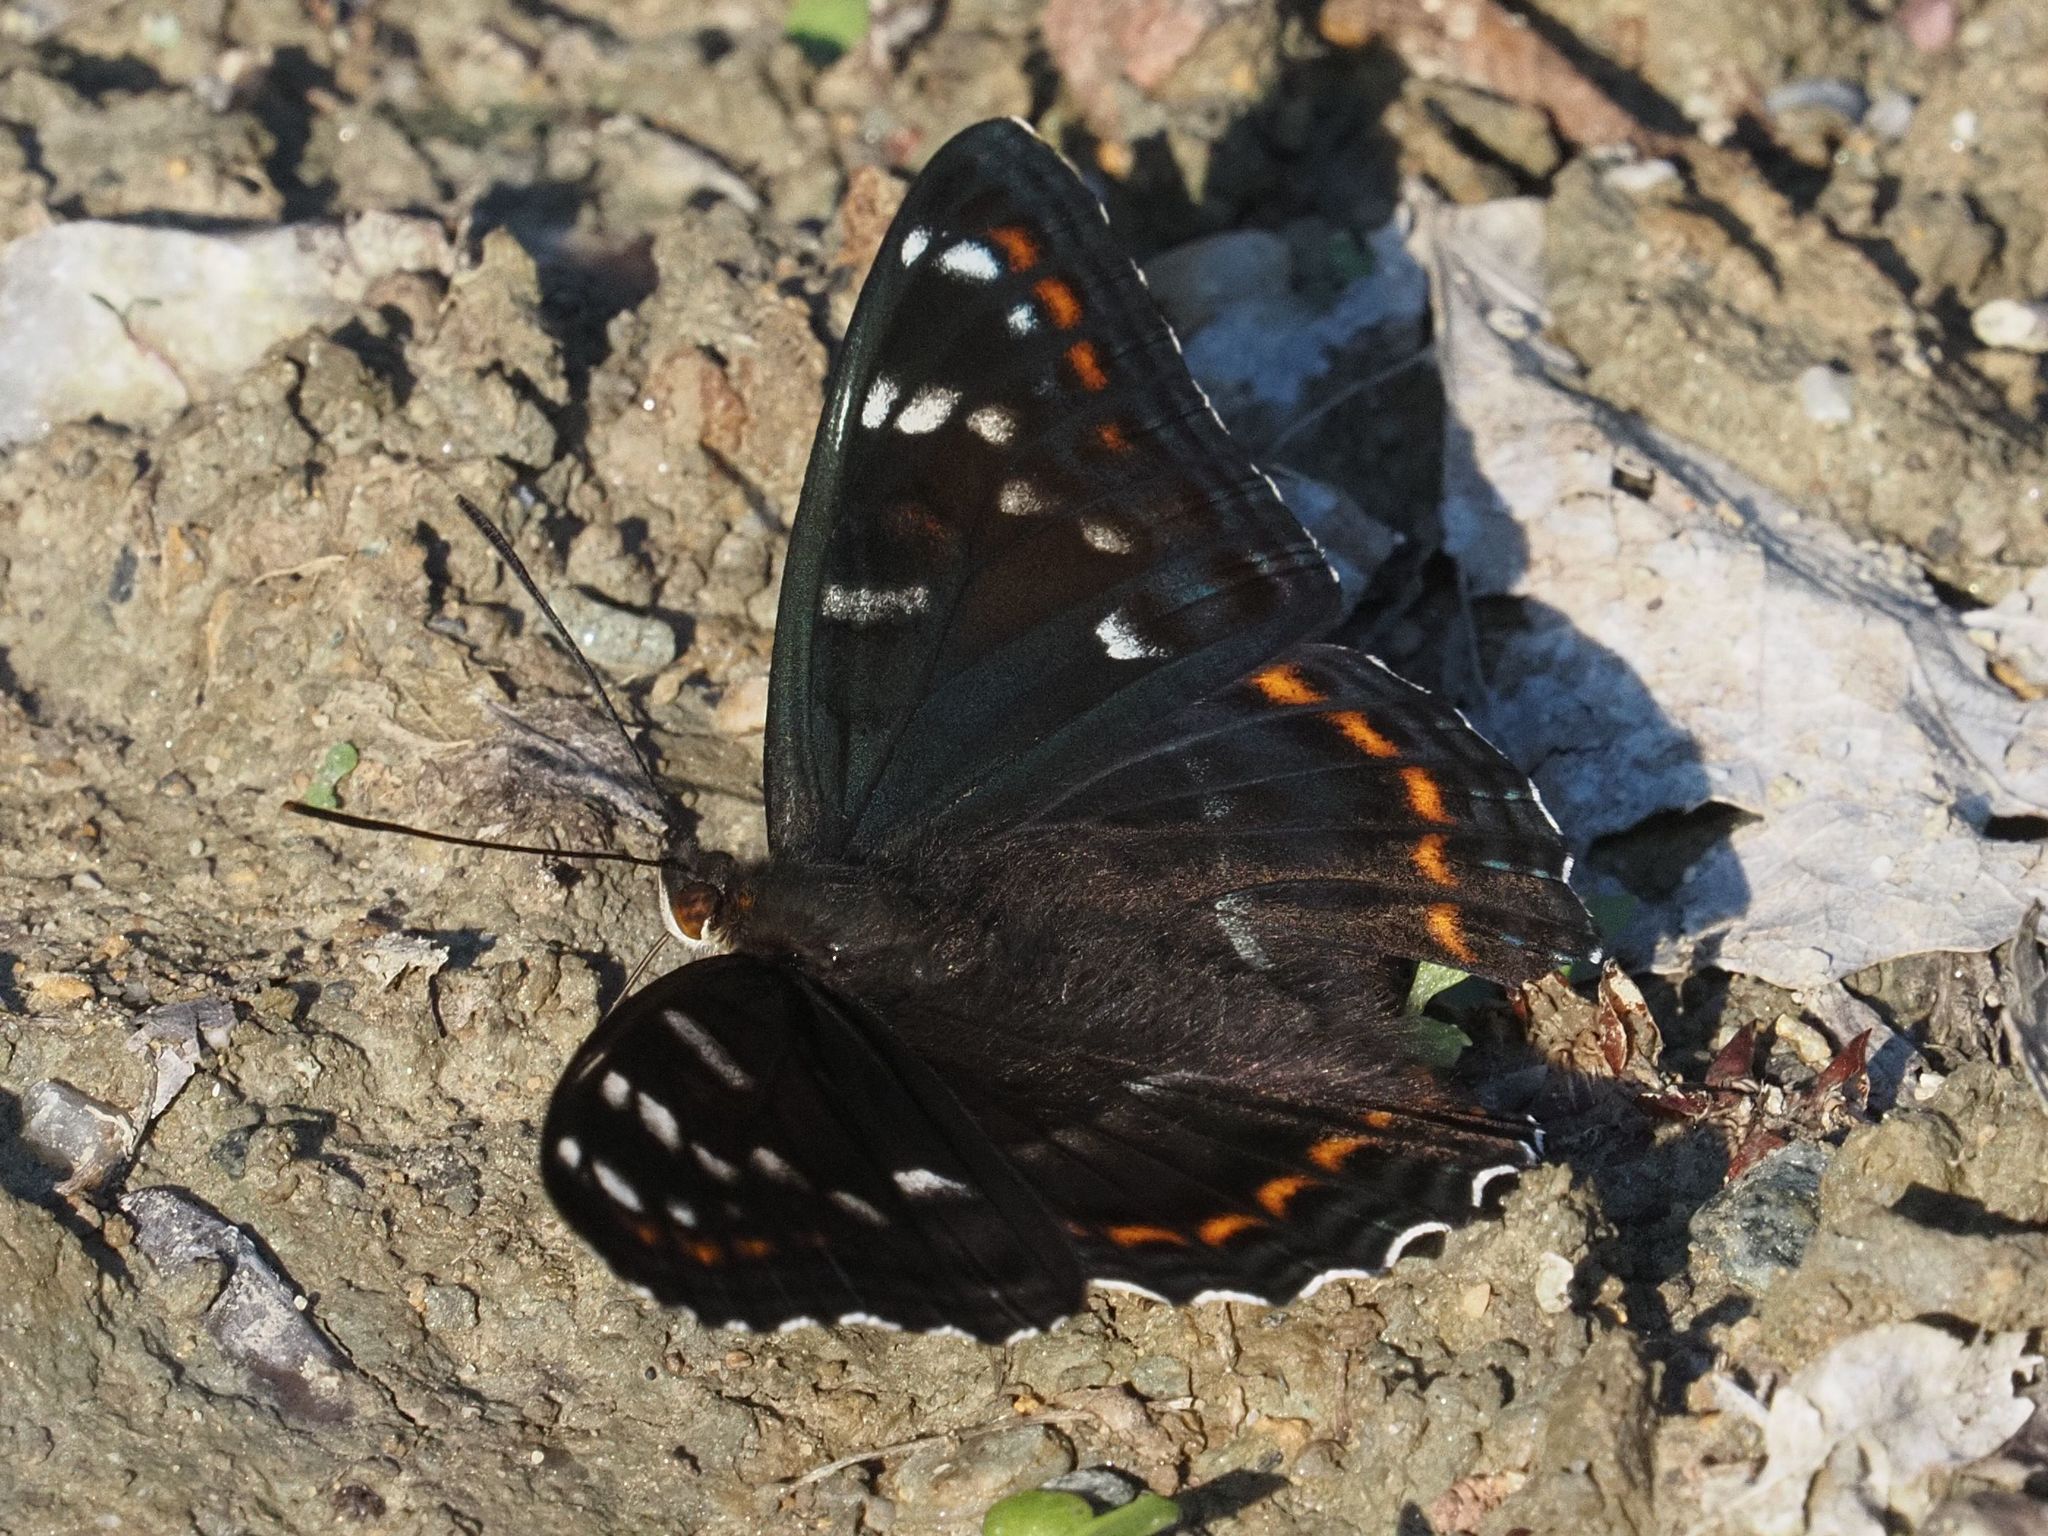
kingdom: Animalia
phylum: Arthropoda
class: Insecta
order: Lepidoptera
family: Nymphalidae
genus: Limenitis
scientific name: Limenitis populi
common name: Poplar admiral
